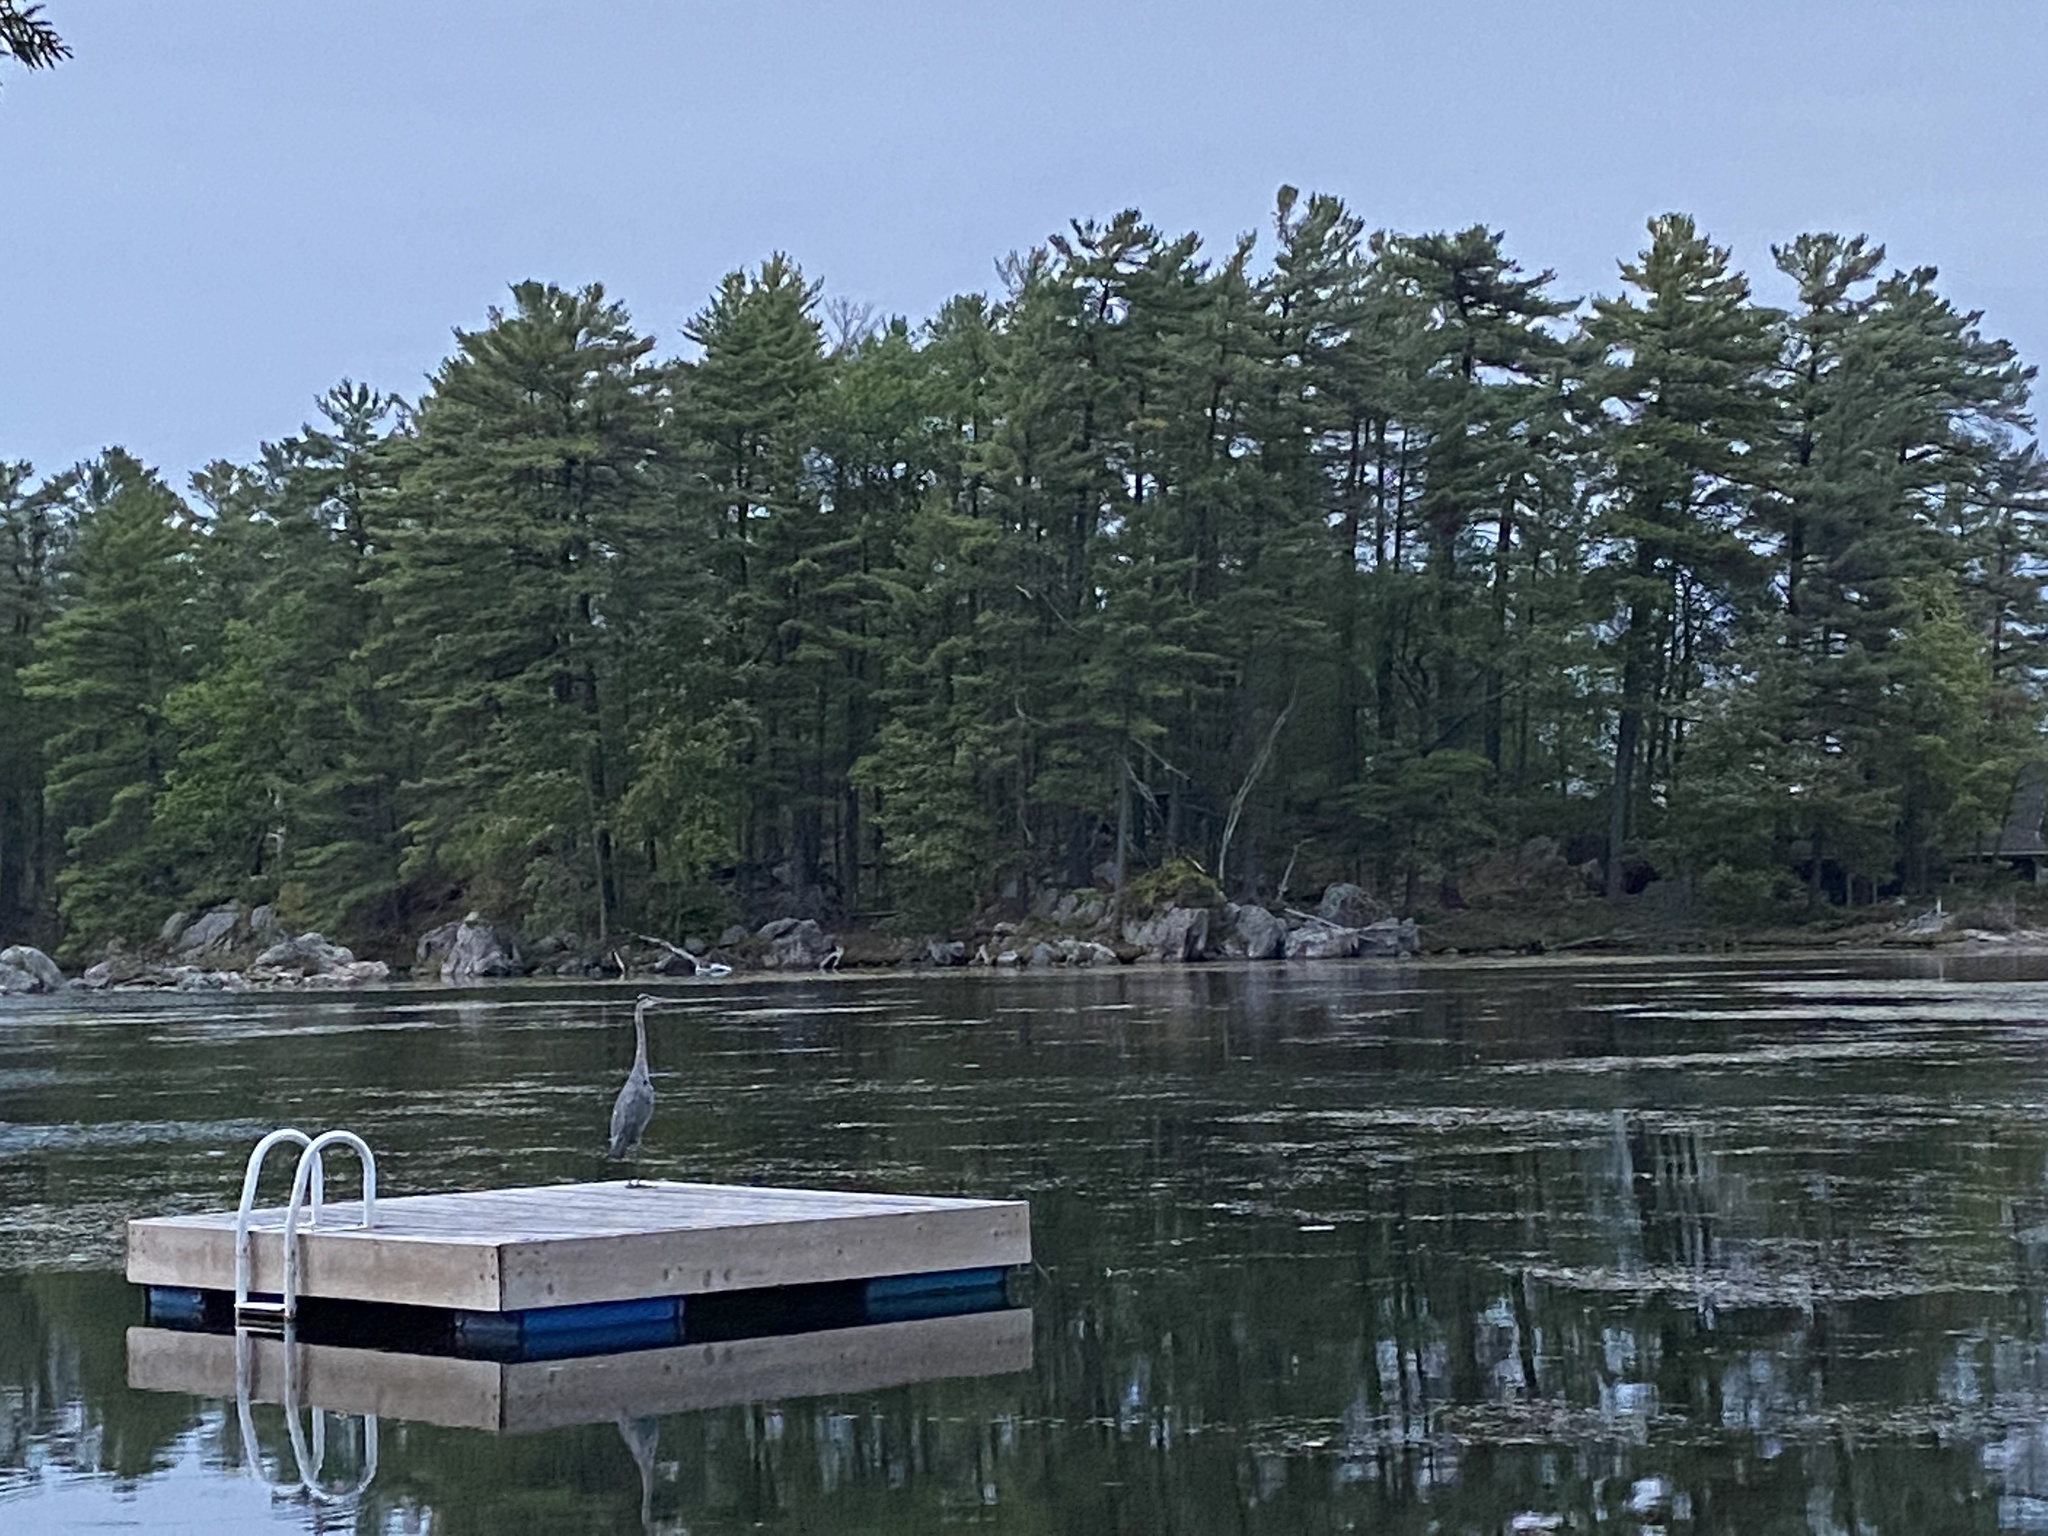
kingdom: Animalia
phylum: Chordata
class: Aves
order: Pelecaniformes
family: Ardeidae
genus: Ardea
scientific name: Ardea herodias
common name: Great blue heron
